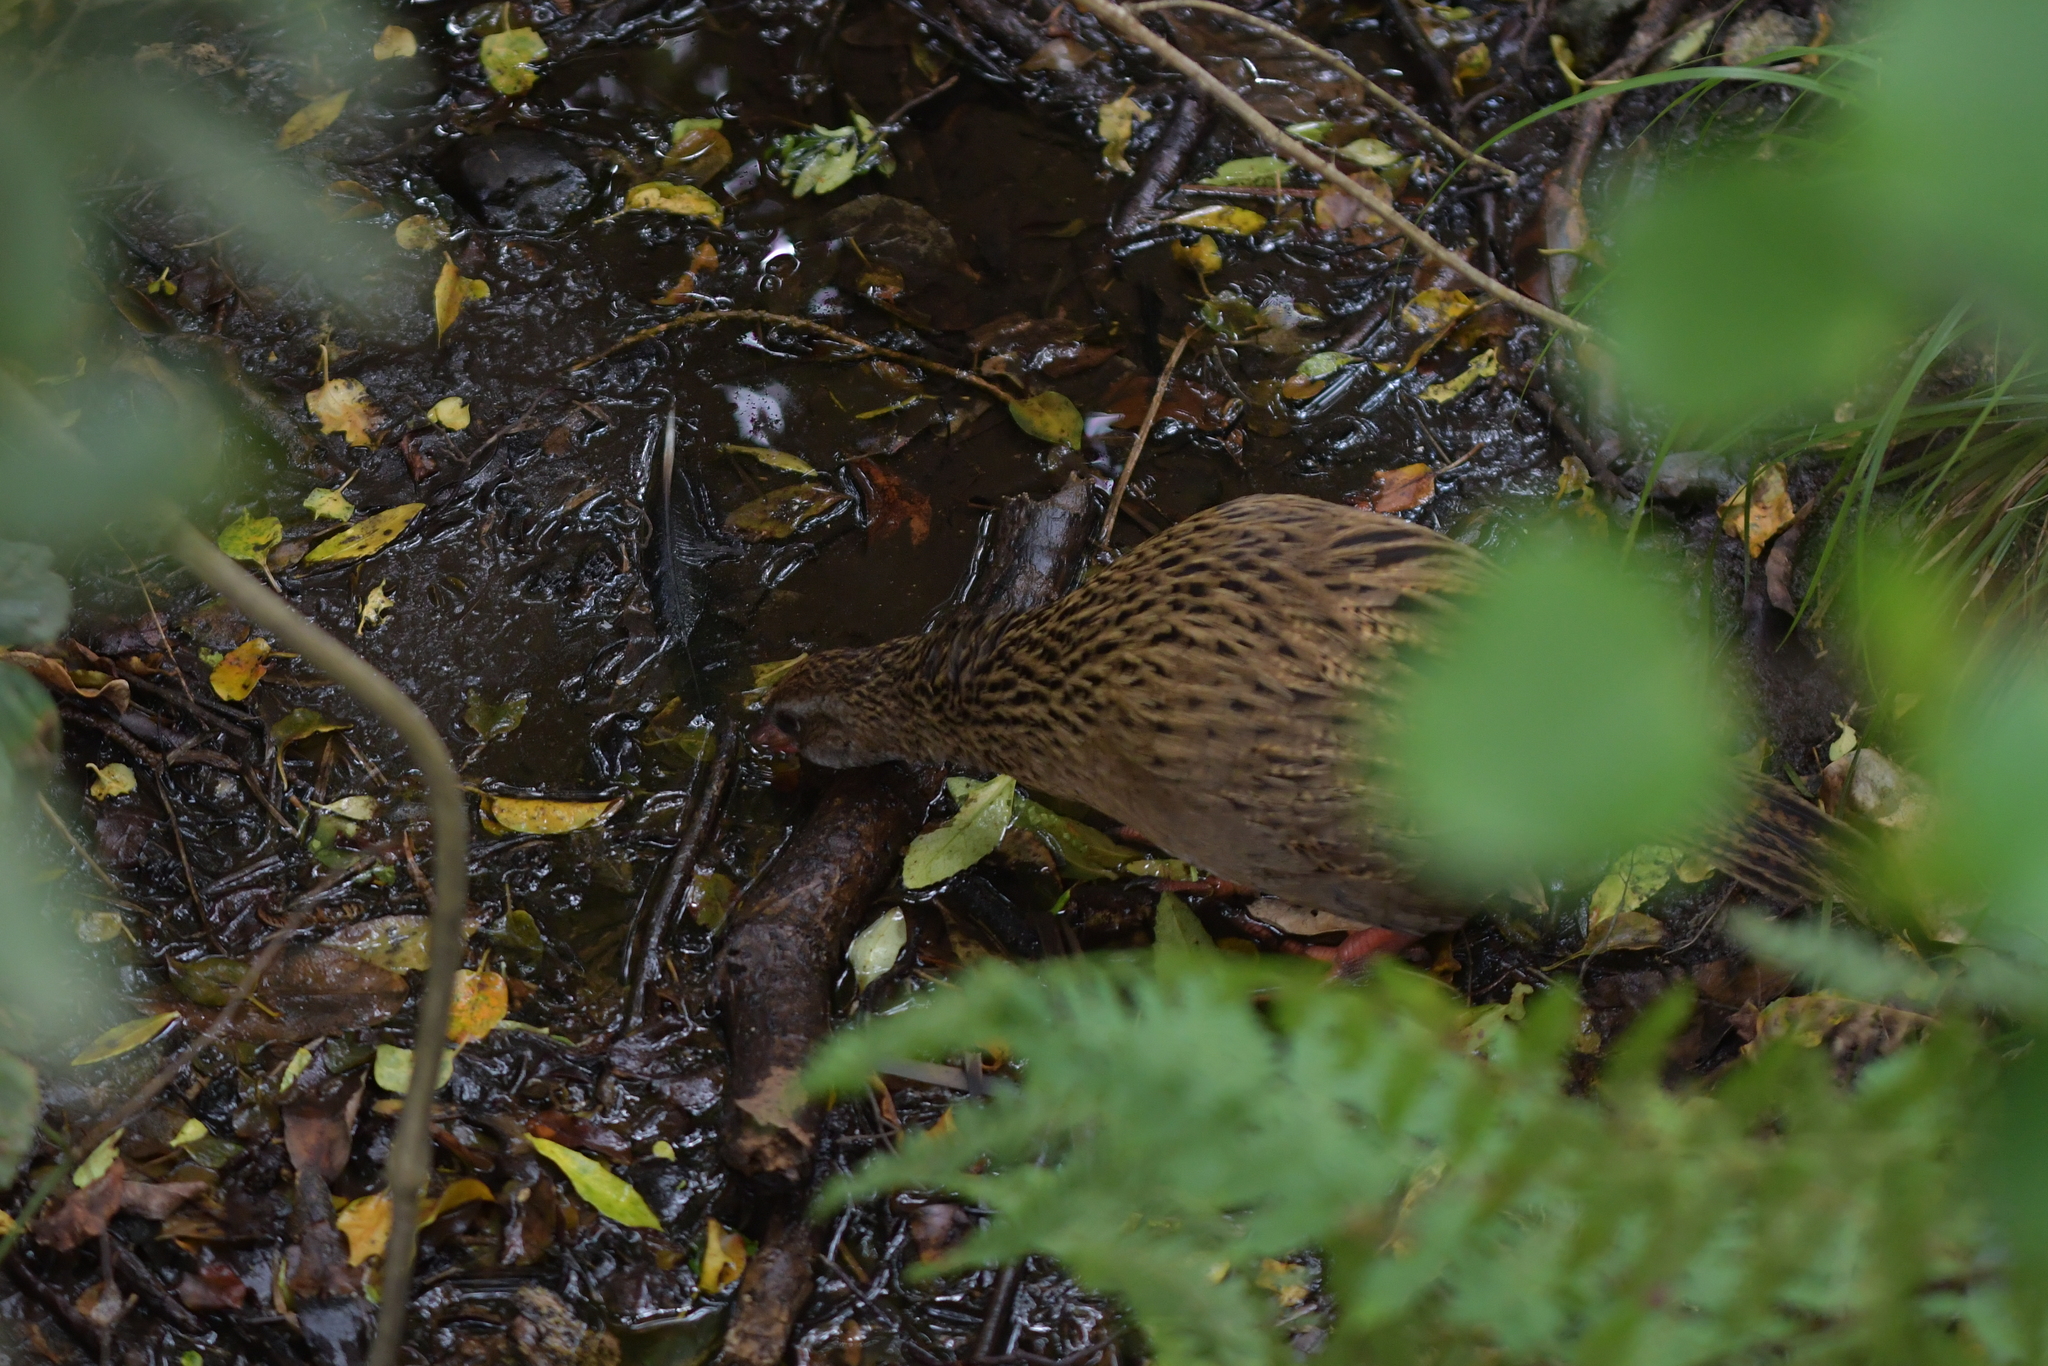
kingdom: Animalia
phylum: Chordata
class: Aves
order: Gruiformes
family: Rallidae
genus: Gallirallus
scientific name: Gallirallus australis
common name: Weka
